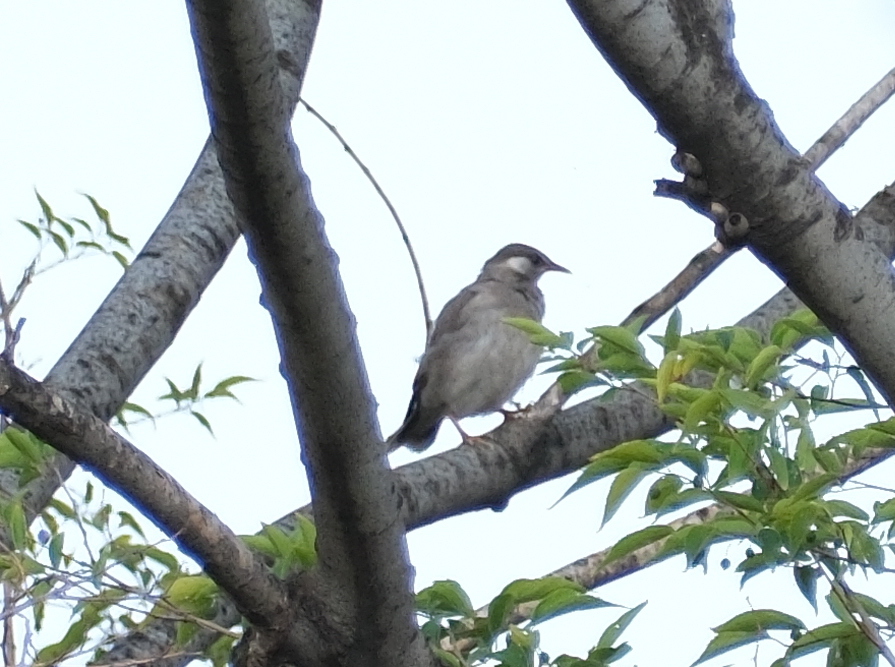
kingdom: Animalia
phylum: Chordata
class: Aves
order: Passeriformes
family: Sturnidae
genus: Spodiopsar
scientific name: Spodiopsar cineraceus
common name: White-cheeked starling
